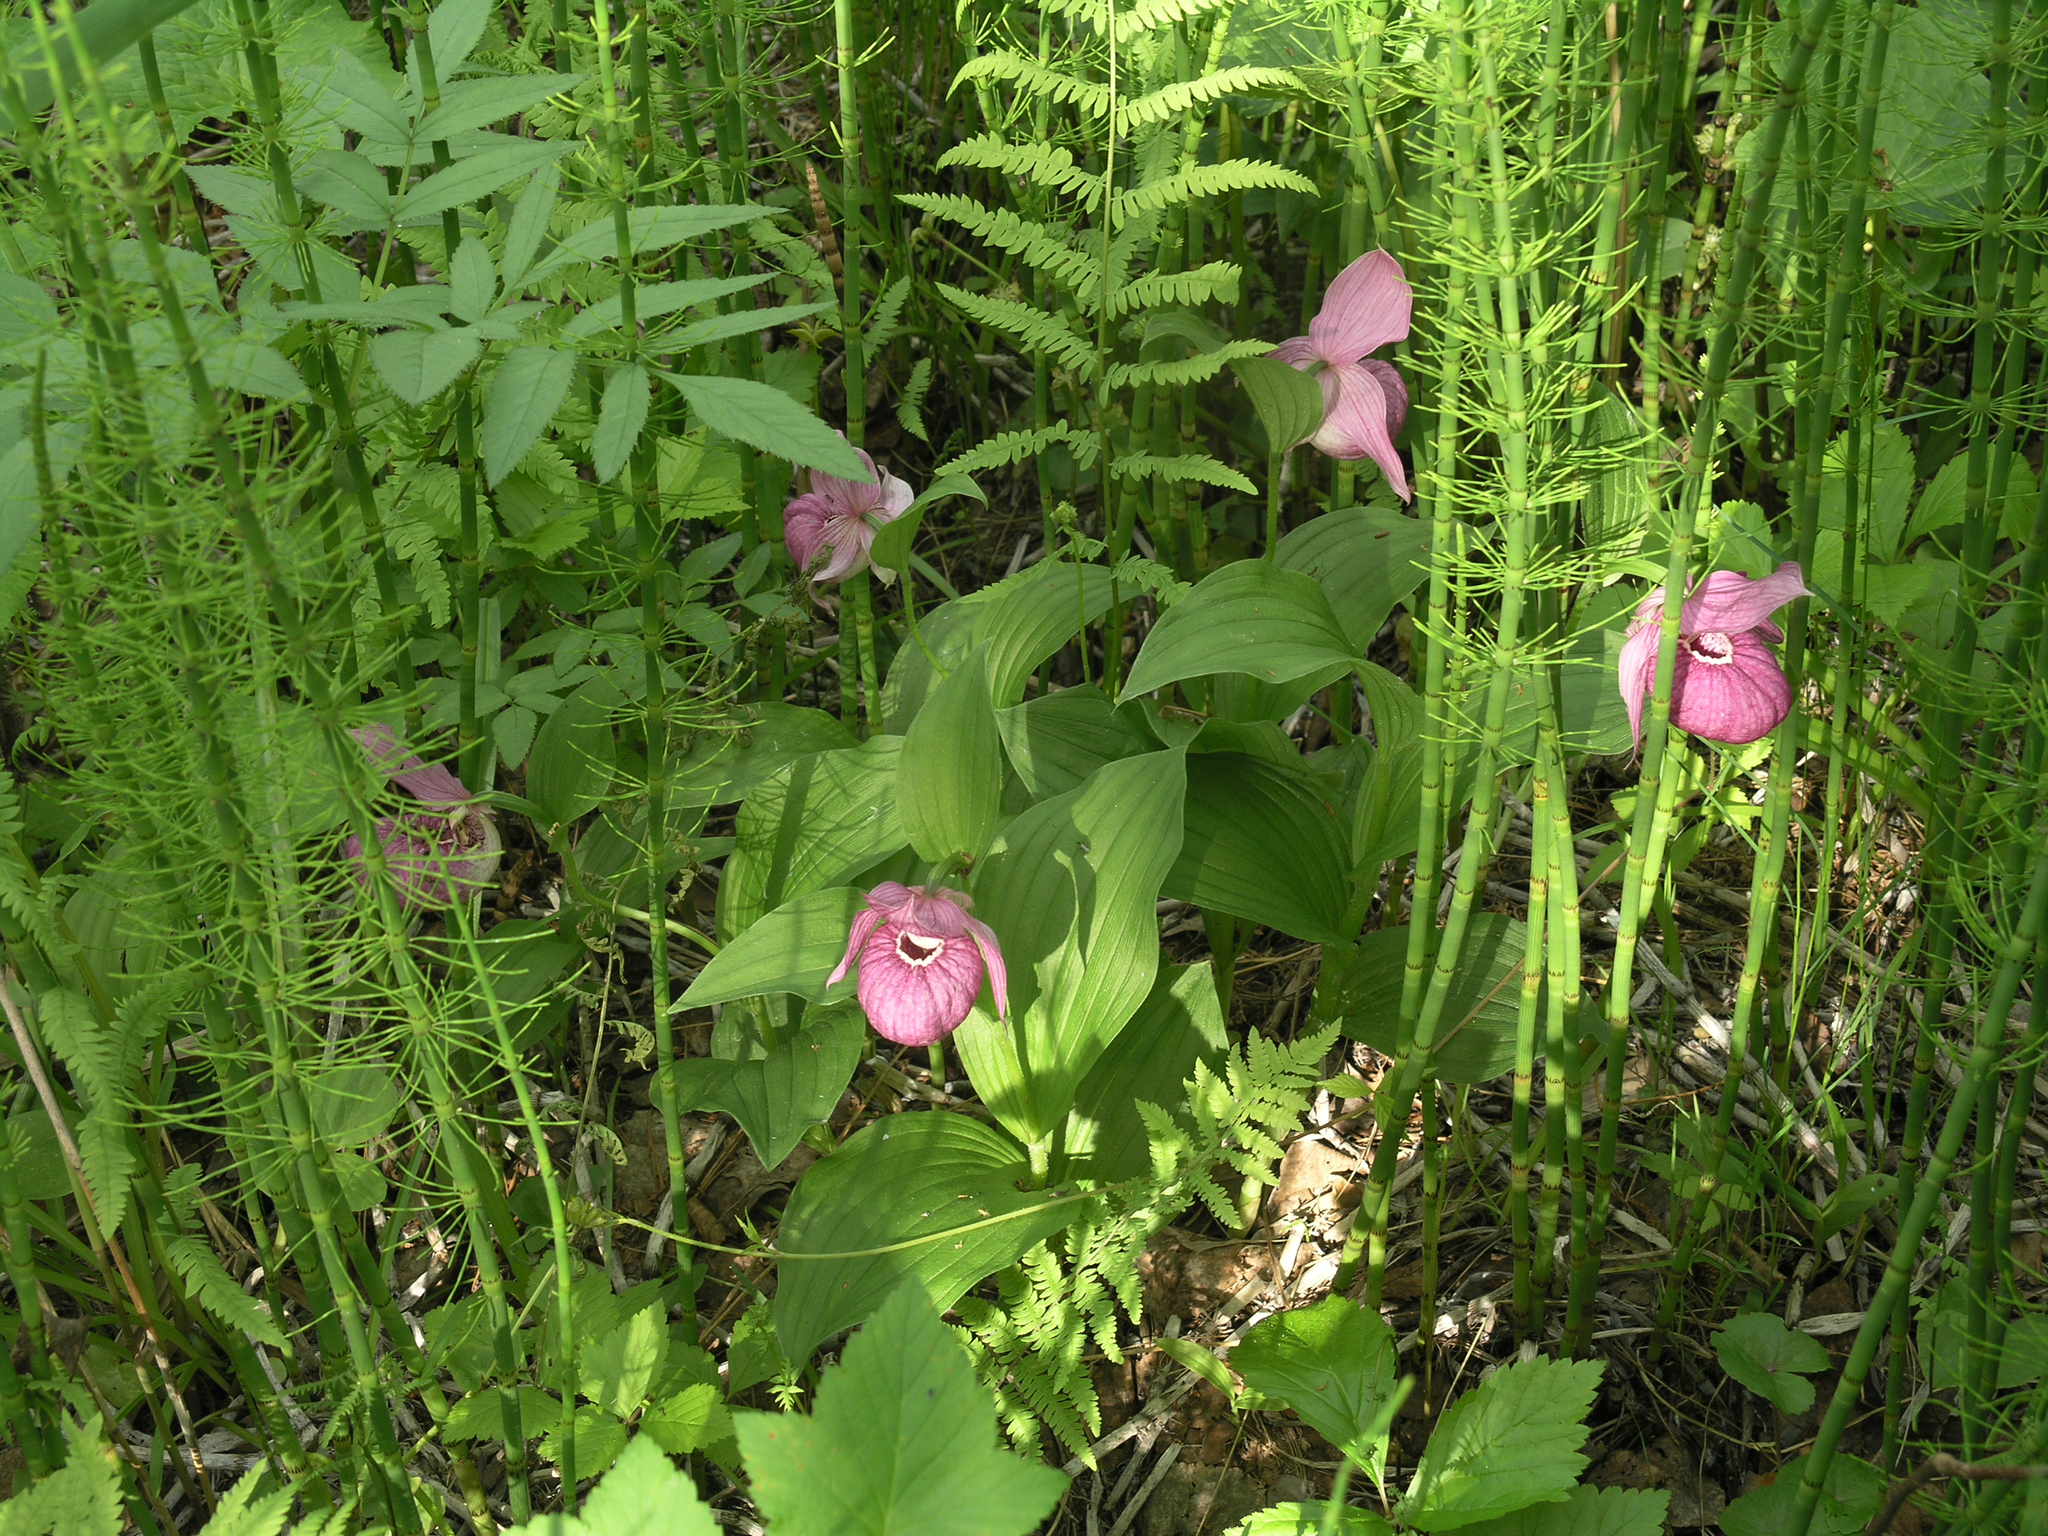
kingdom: Plantae
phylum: Tracheophyta
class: Liliopsida
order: Asparagales
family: Orchidaceae
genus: Cypripedium
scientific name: Cypripedium macranthos
